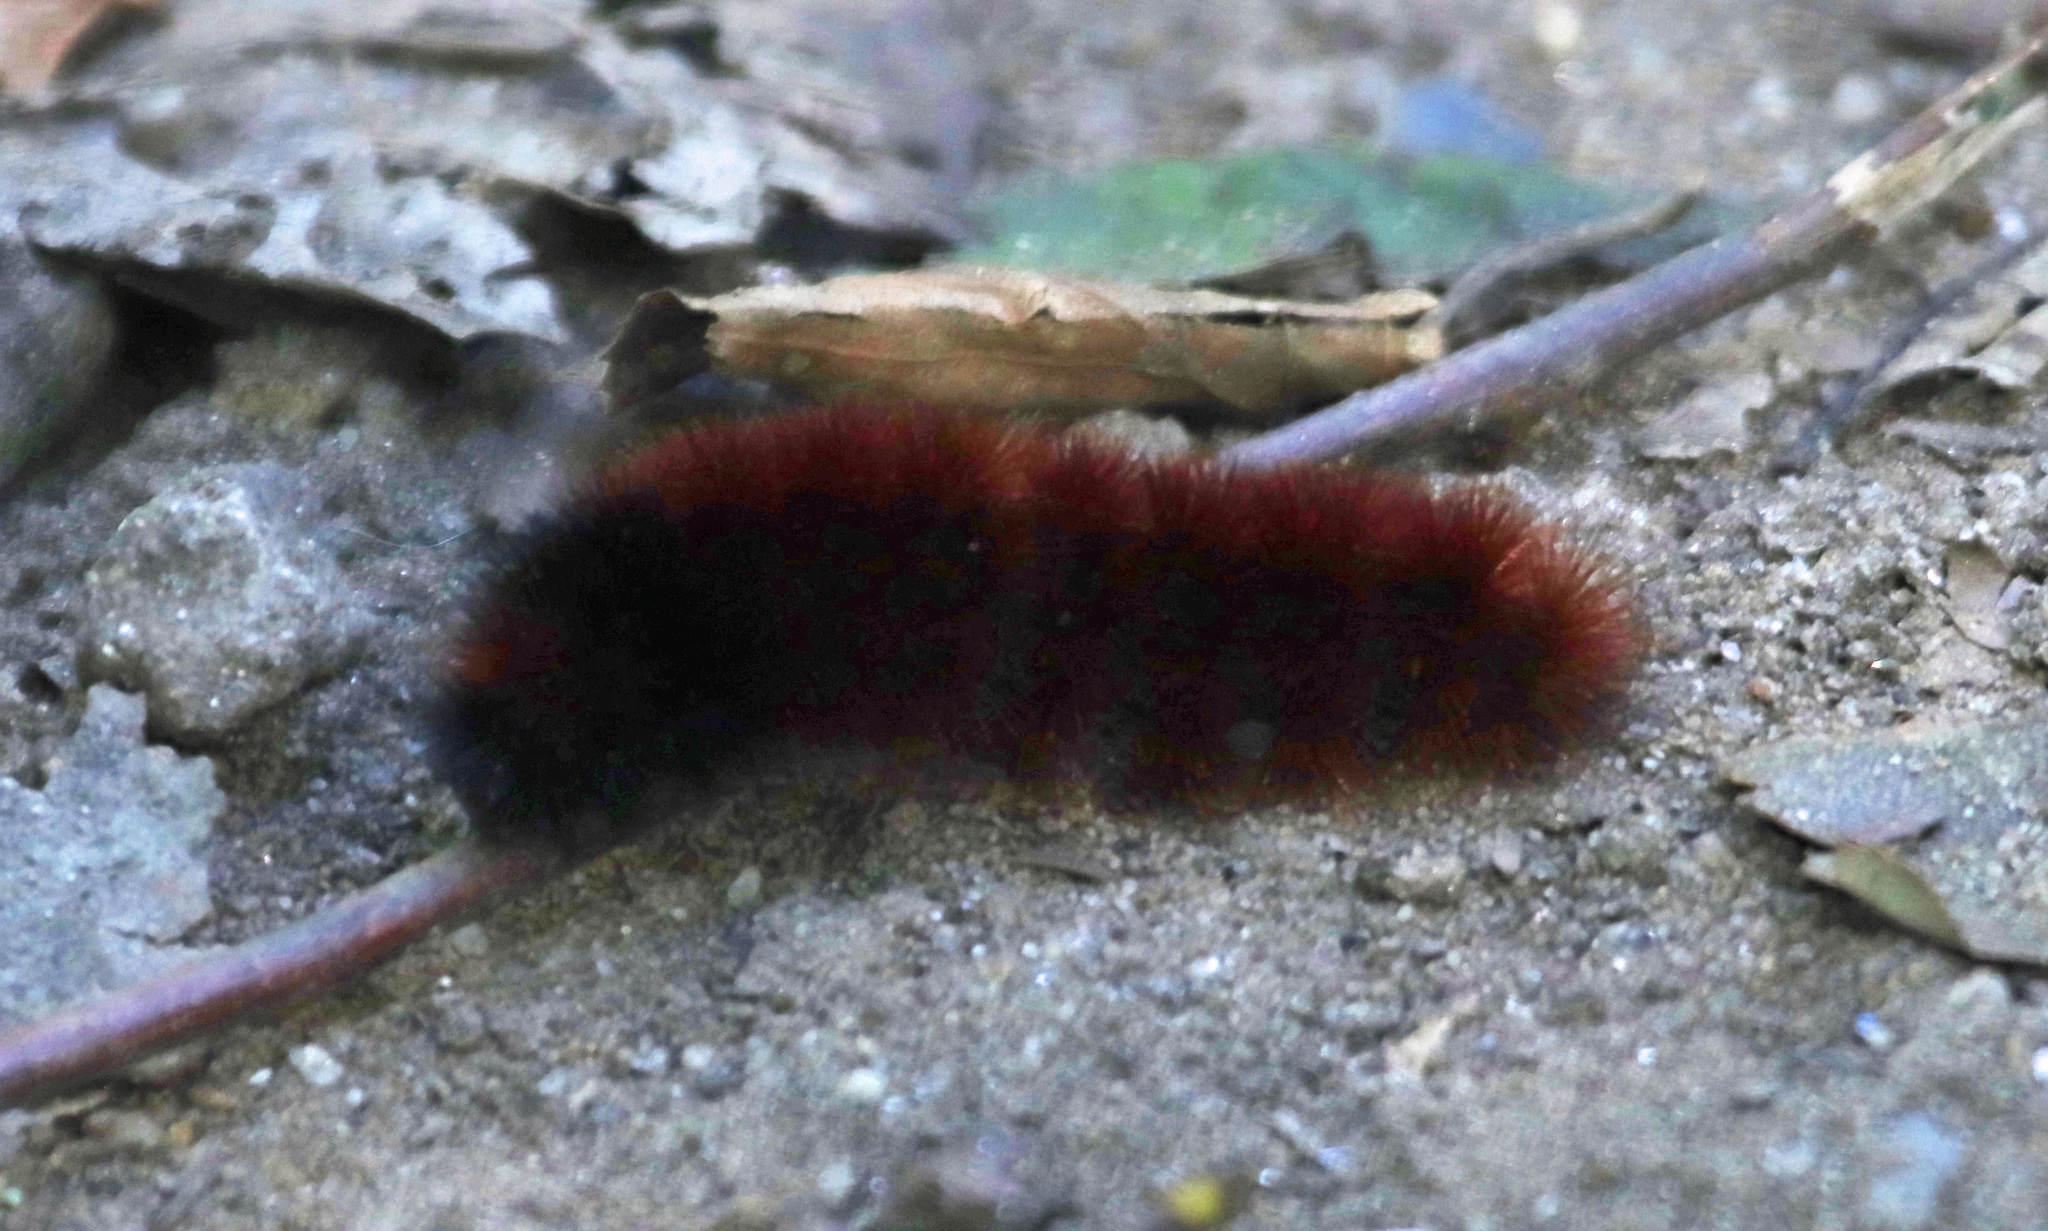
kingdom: Animalia
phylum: Arthropoda
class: Insecta
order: Lepidoptera
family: Erebidae
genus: Pyrrharctia
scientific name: Pyrrharctia isabella
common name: Isabella tiger moth
